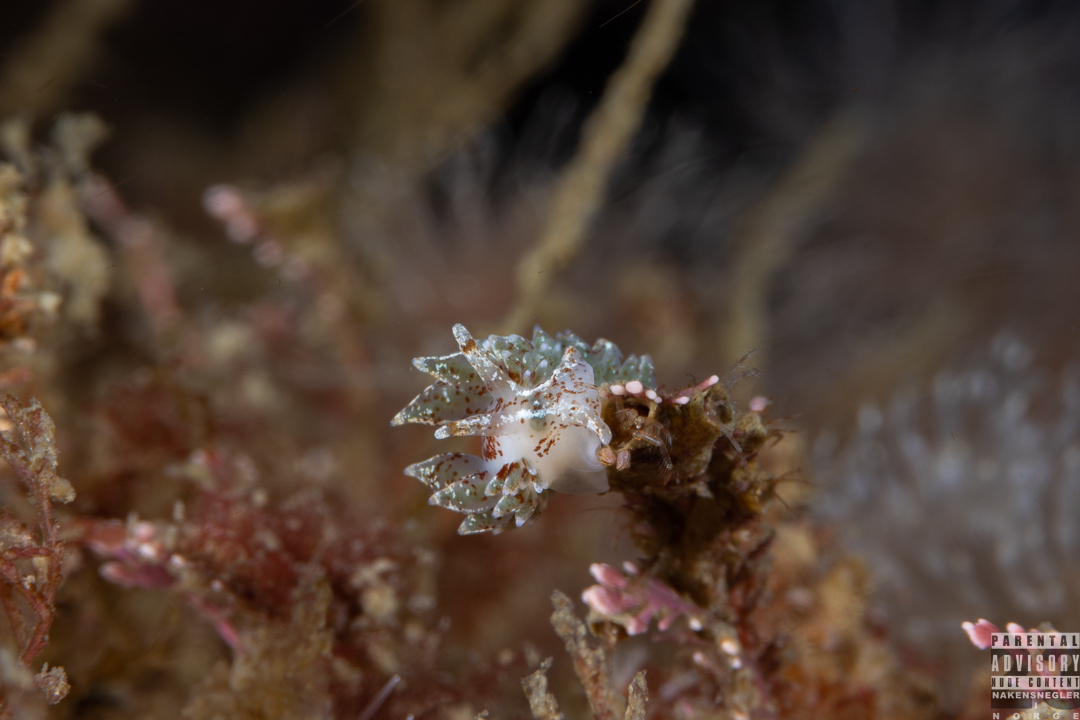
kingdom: Animalia
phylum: Mollusca
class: Gastropoda
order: Nudibranchia
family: Eubranchidae
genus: Amphorina
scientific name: Amphorina pallida
